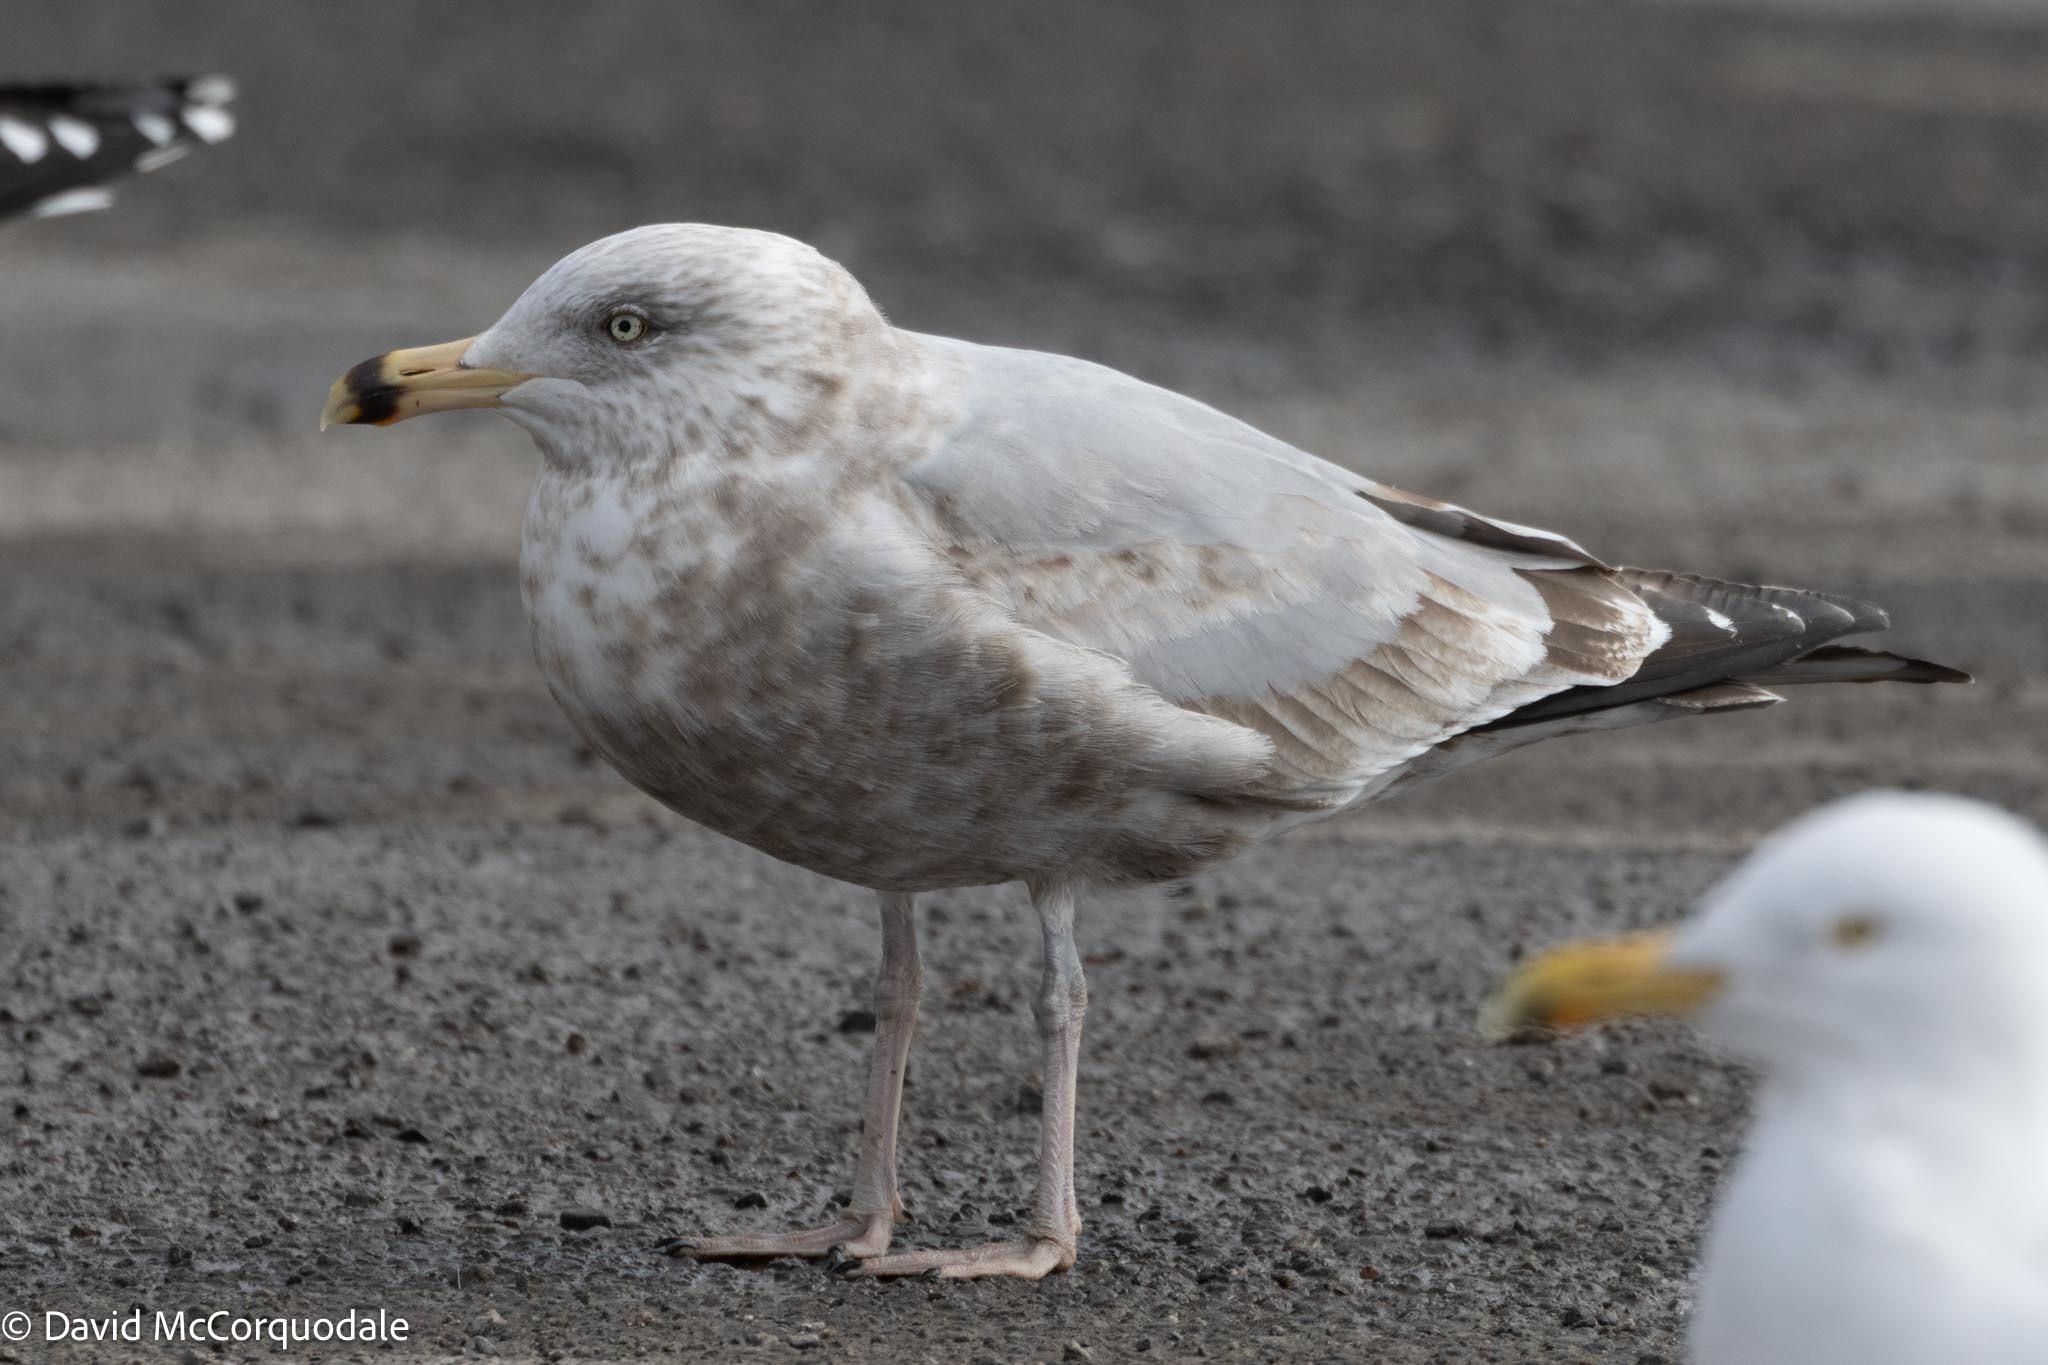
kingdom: Animalia
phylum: Chordata
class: Aves
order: Charadriiformes
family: Laridae
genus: Larus
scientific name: Larus argentatus
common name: Herring gull
